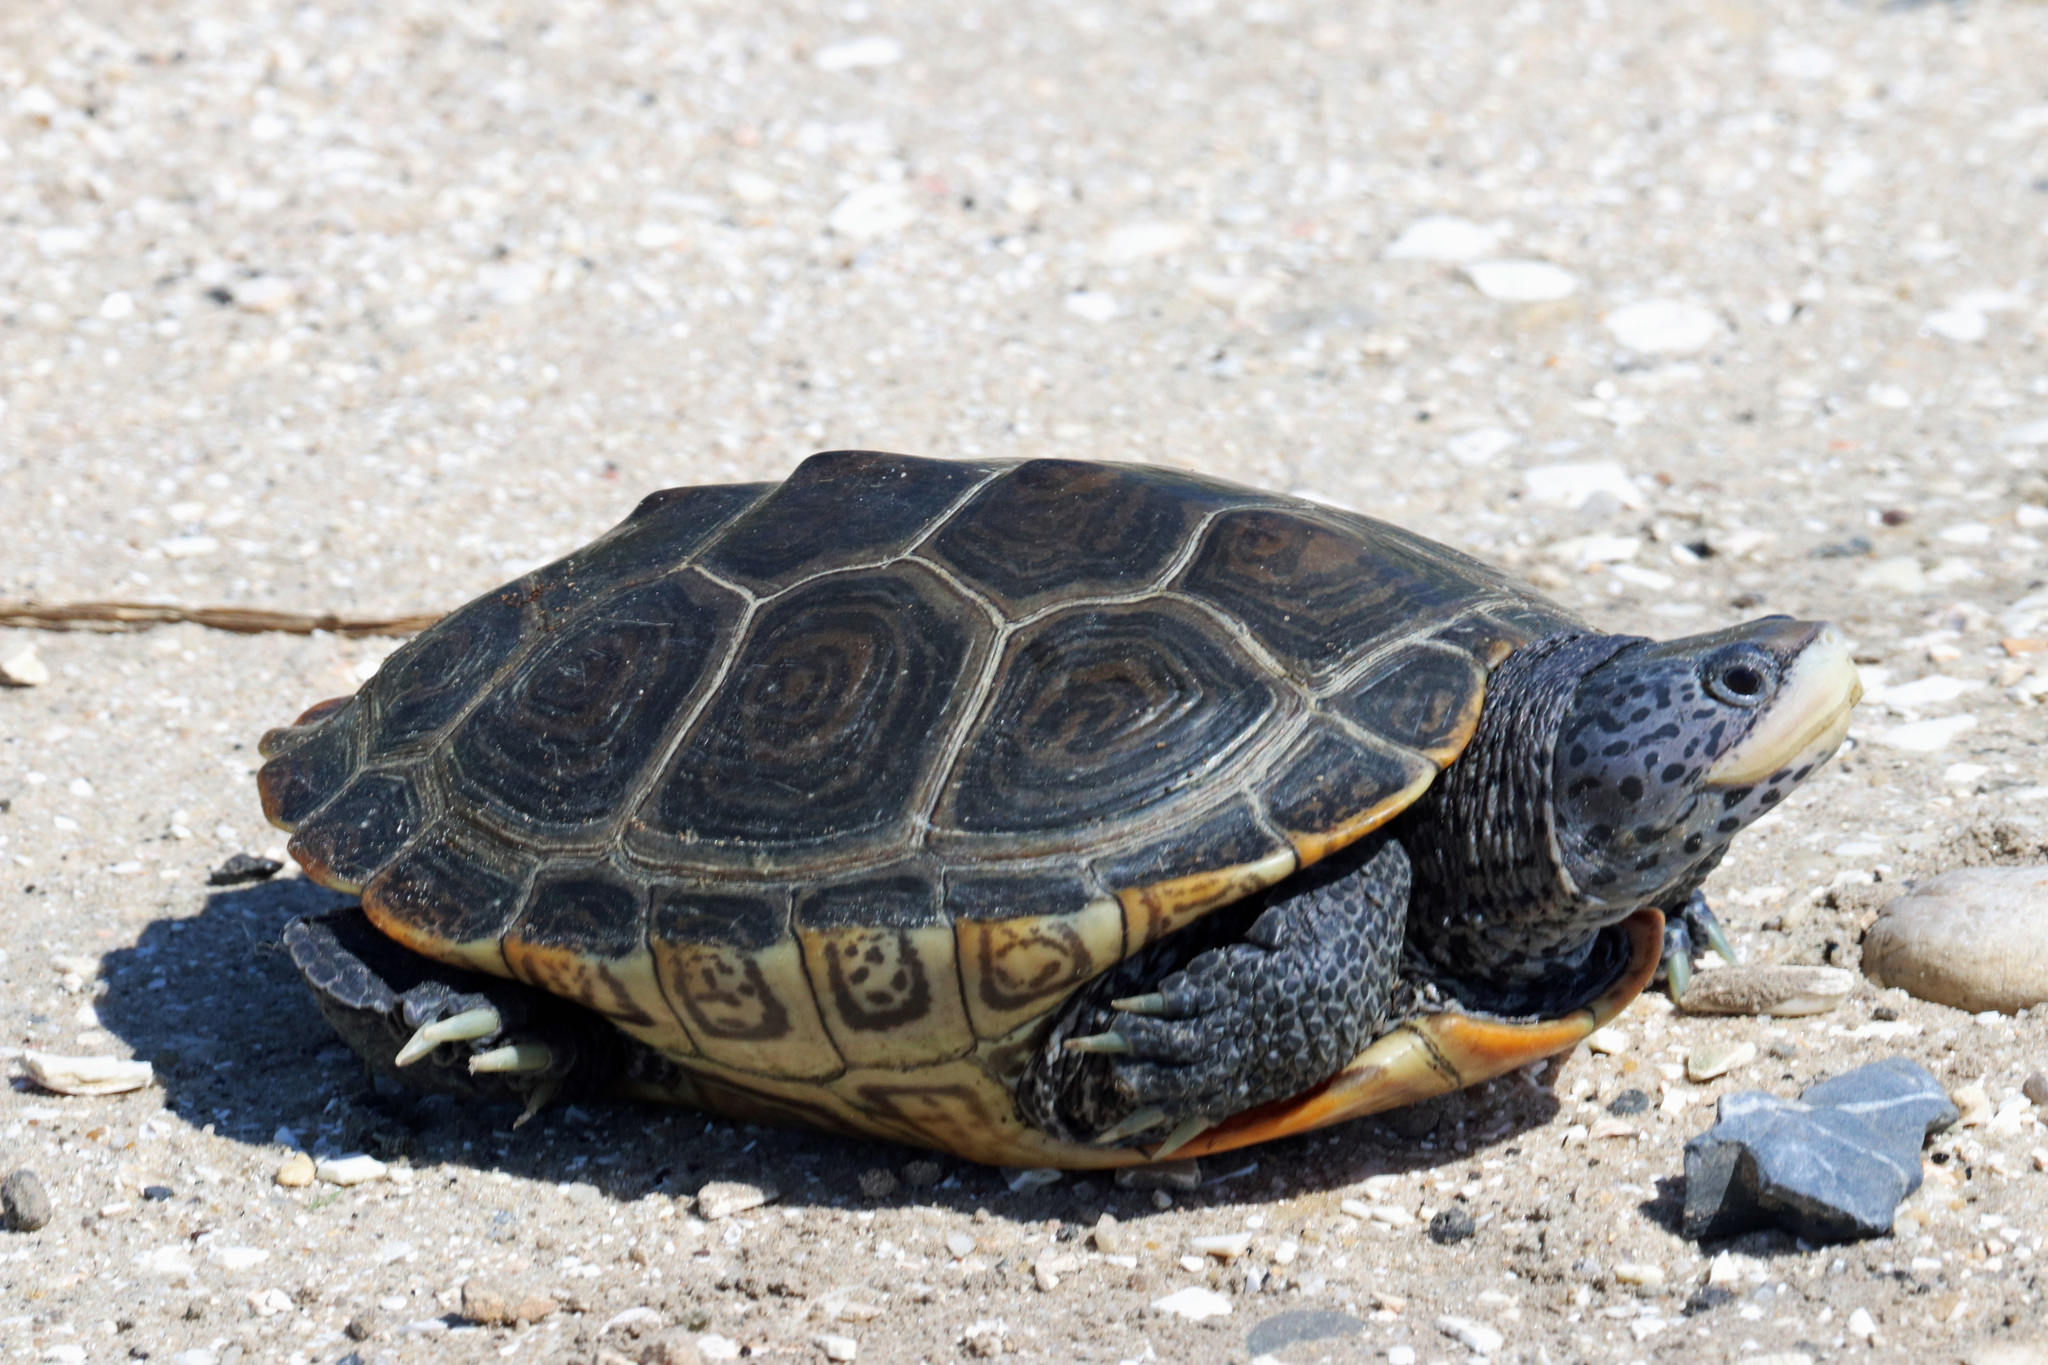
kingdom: Animalia
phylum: Chordata
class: Testudines
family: Emydidae
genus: Malaclemys
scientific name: Malaclemys terrapin
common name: Diamondback terrapin
